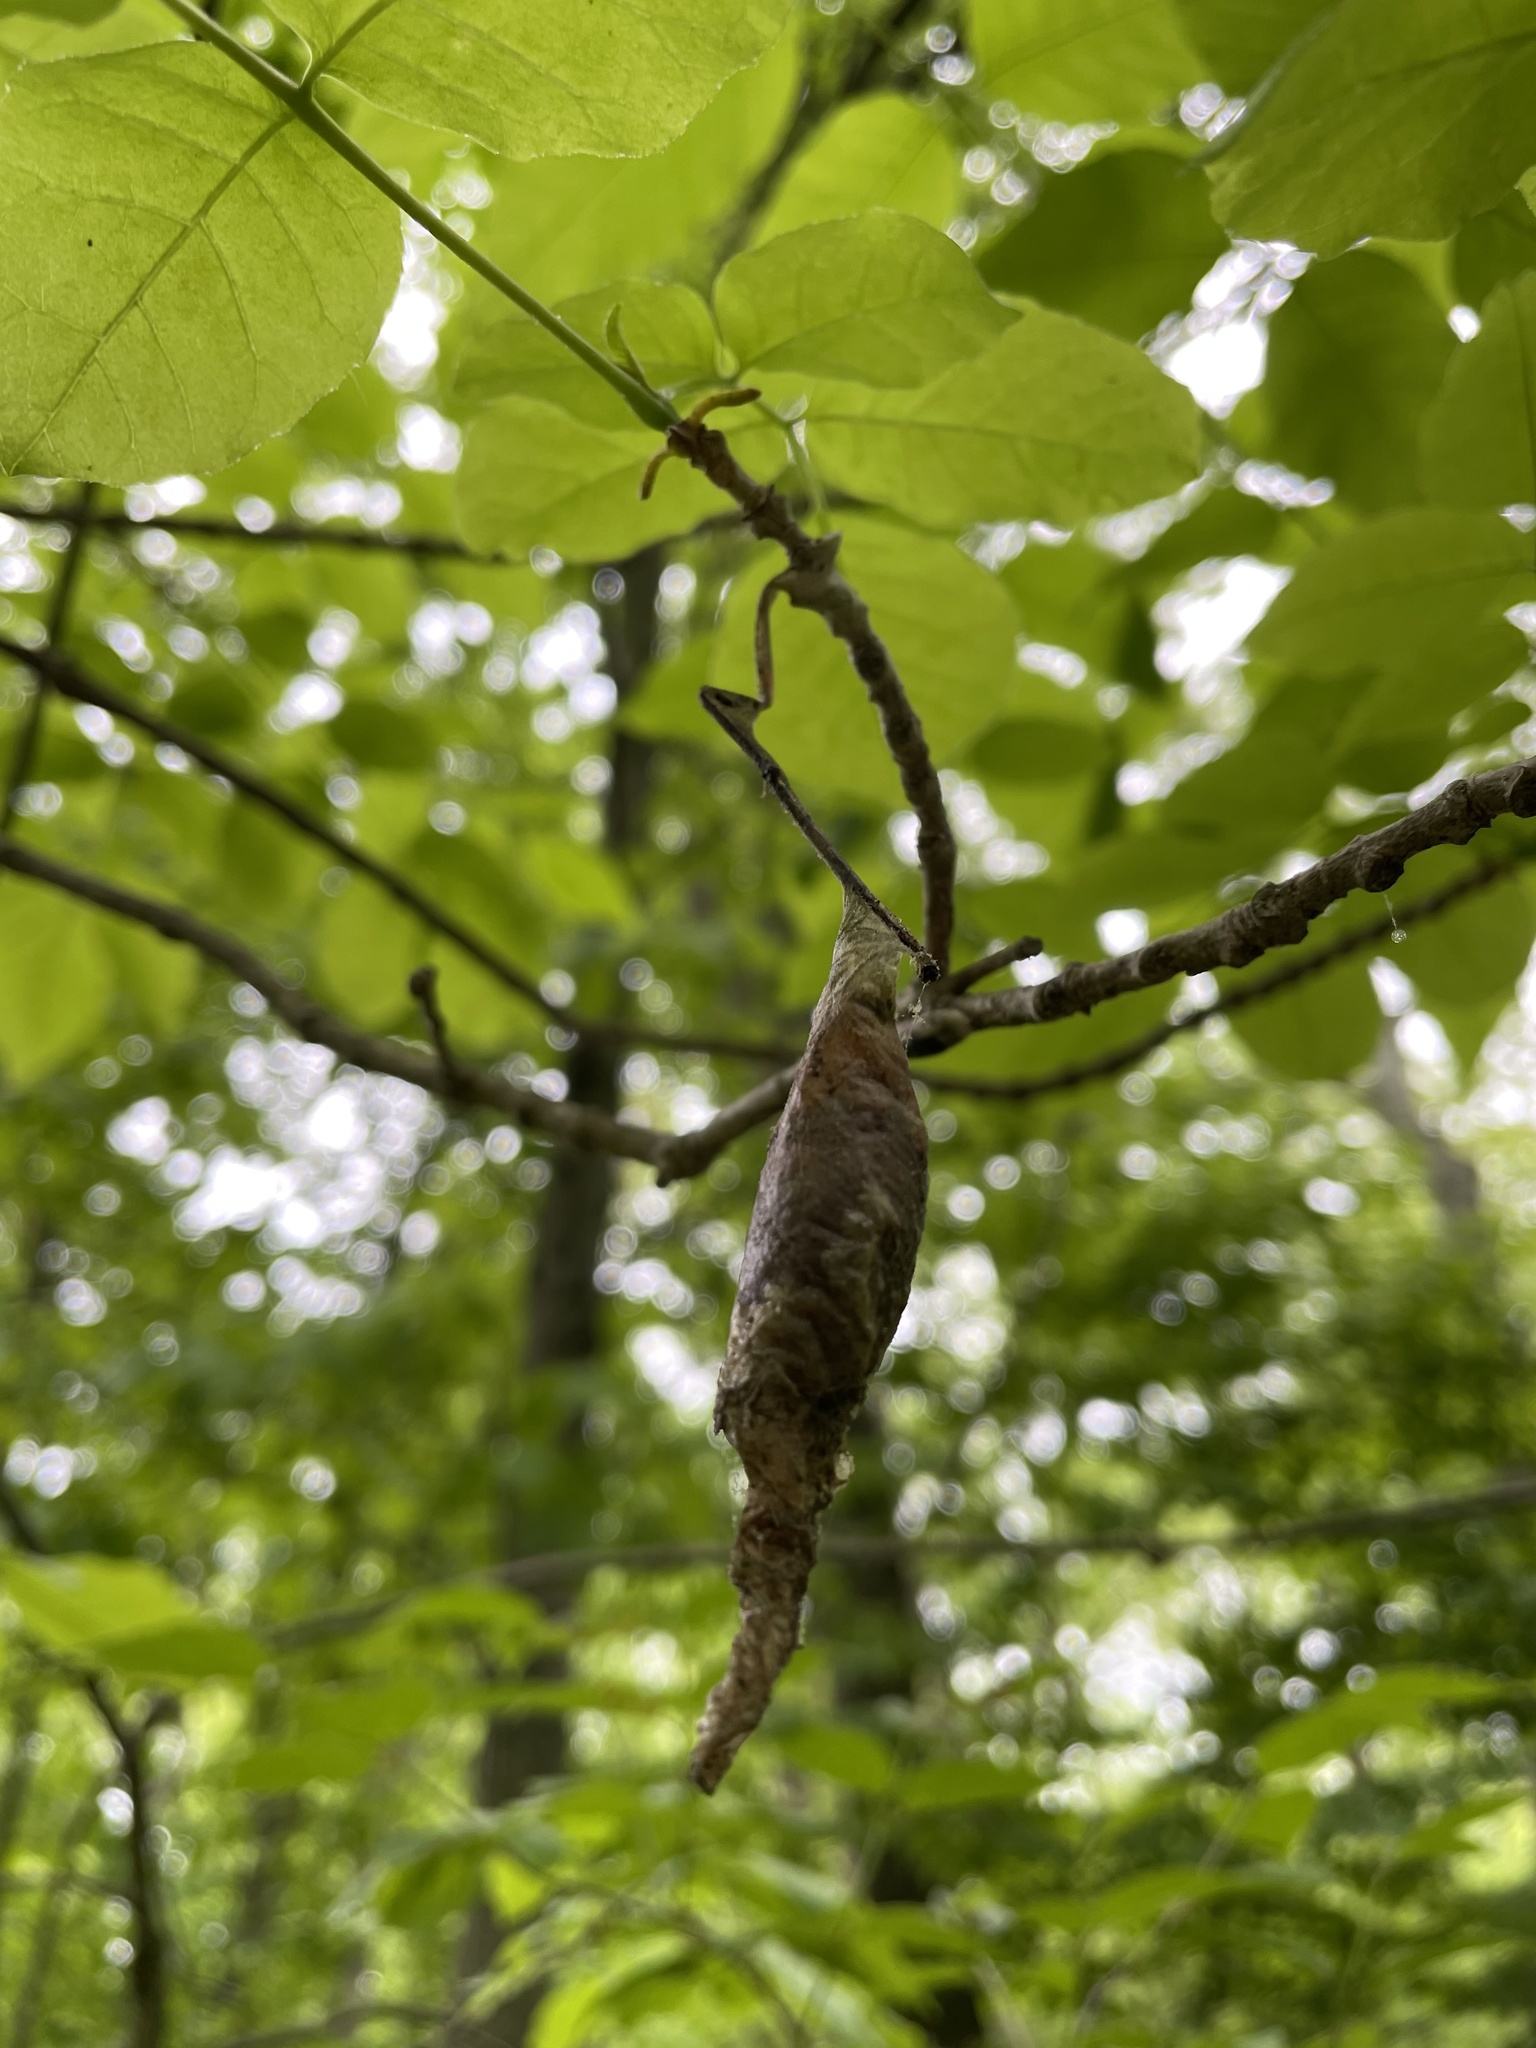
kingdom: Animalia
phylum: Arthropoda
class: Insecta
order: Lepidoptera
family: Saturniidae
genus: Callosamia
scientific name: Callosamia promethea
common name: Promethea silkmoth
